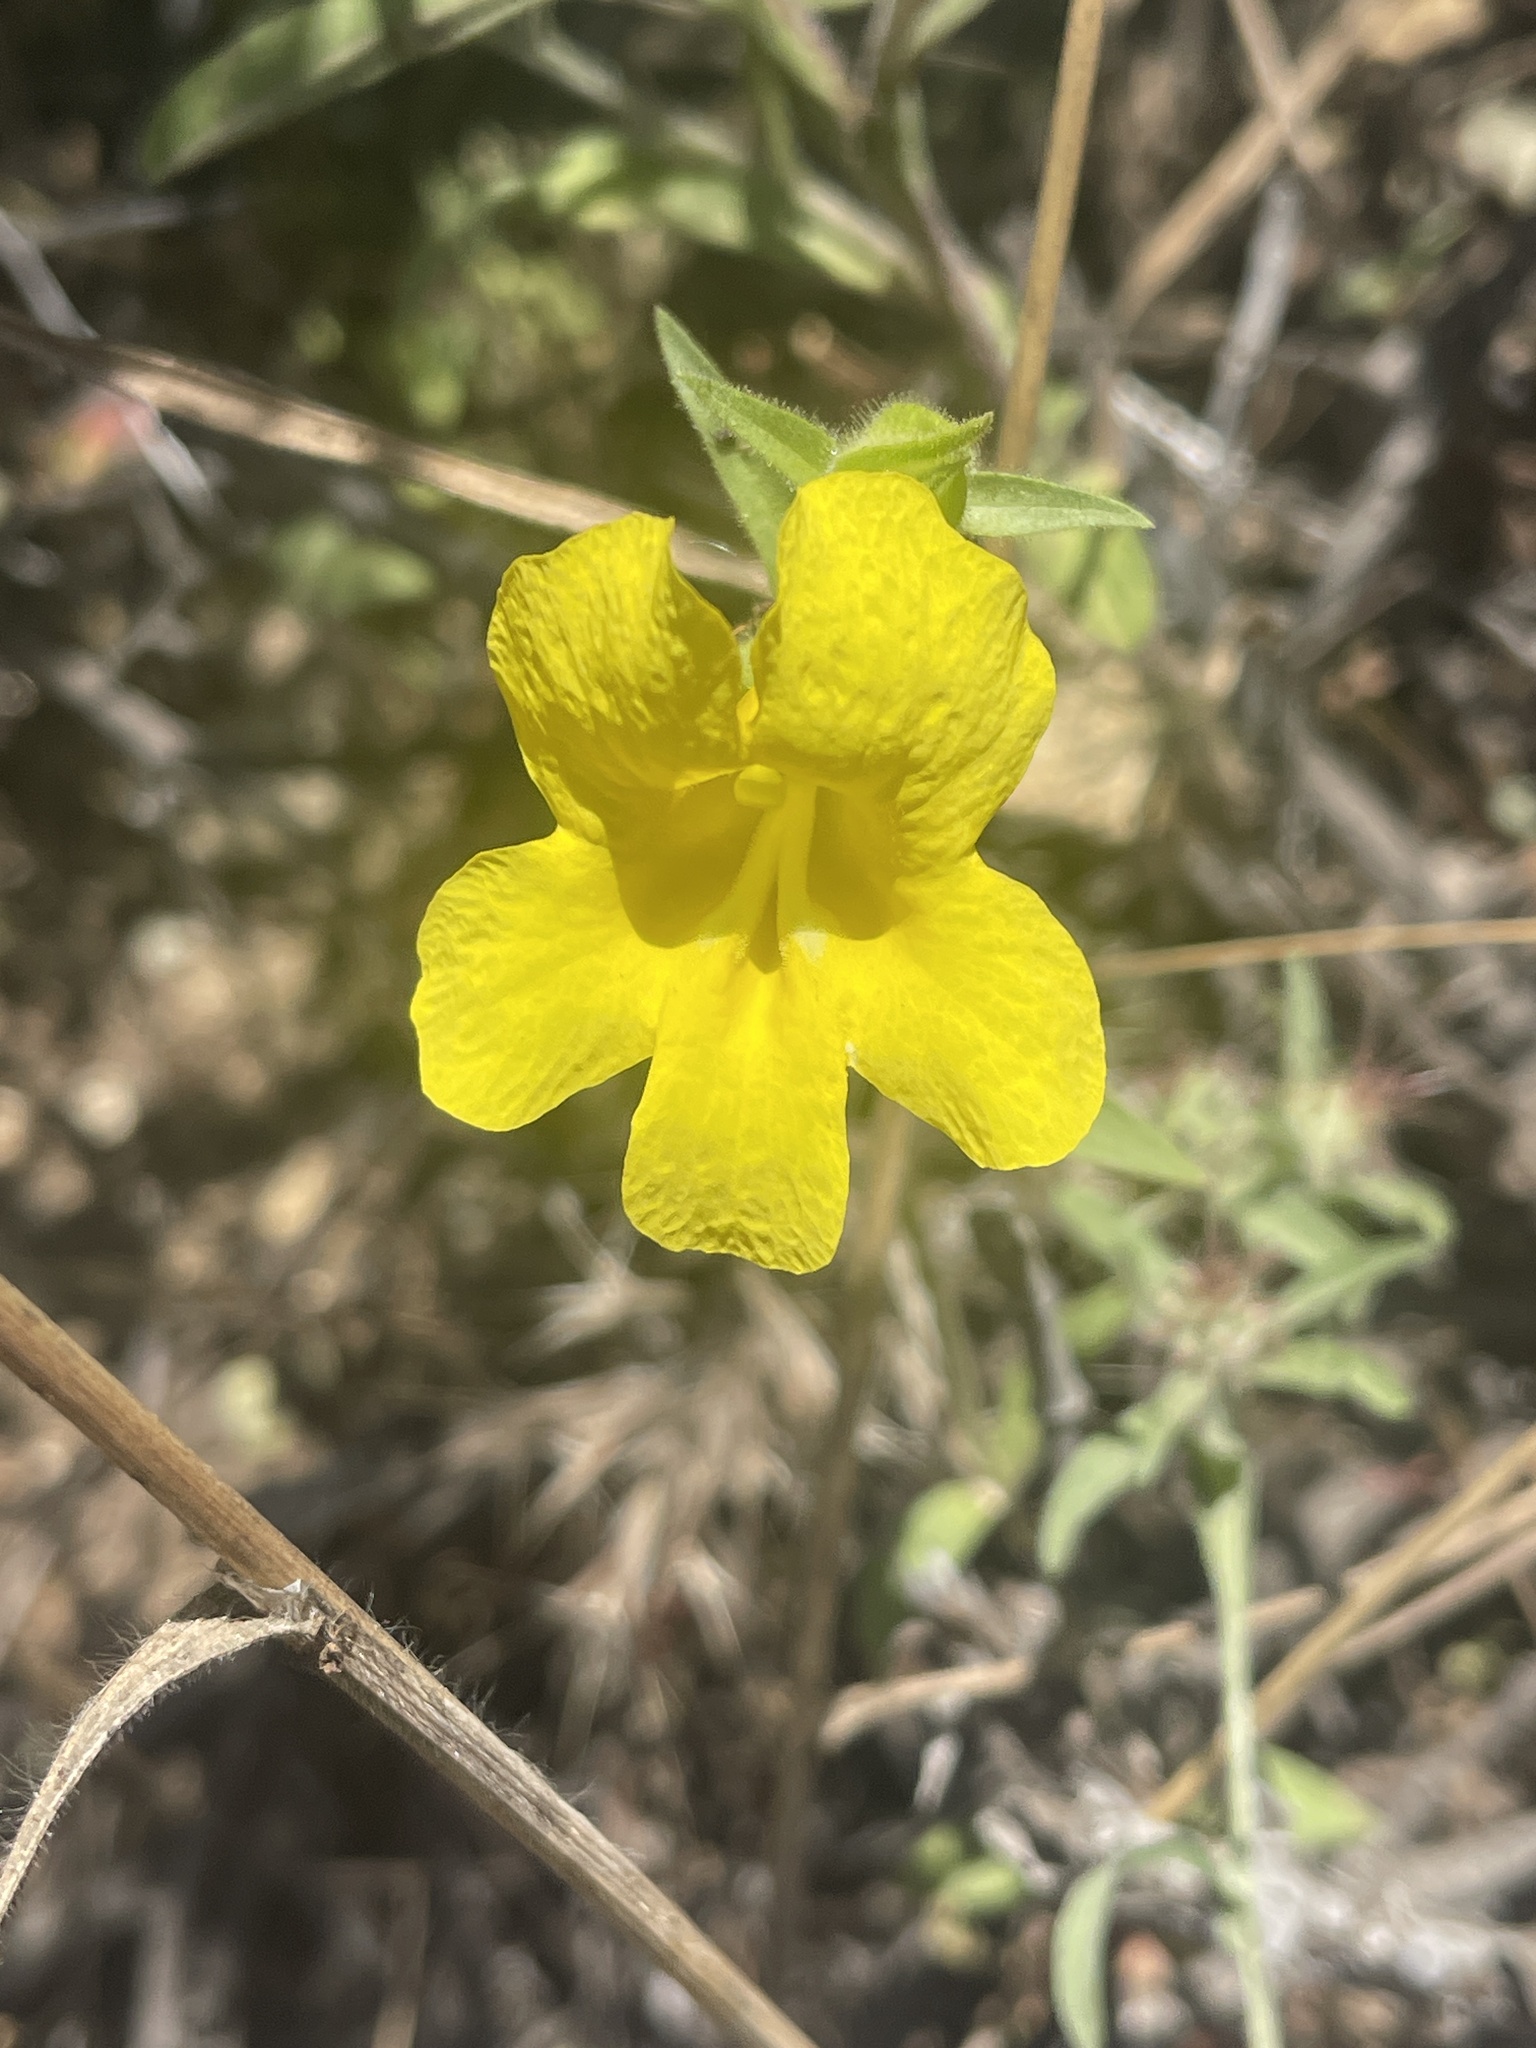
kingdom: Plantae
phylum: Tracheophyta
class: Magnoliopsida
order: Lamiales
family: Phrymaceae
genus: Diplacus
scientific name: Diplacus brevipes
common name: Wide-throat yellow monkey-flower
